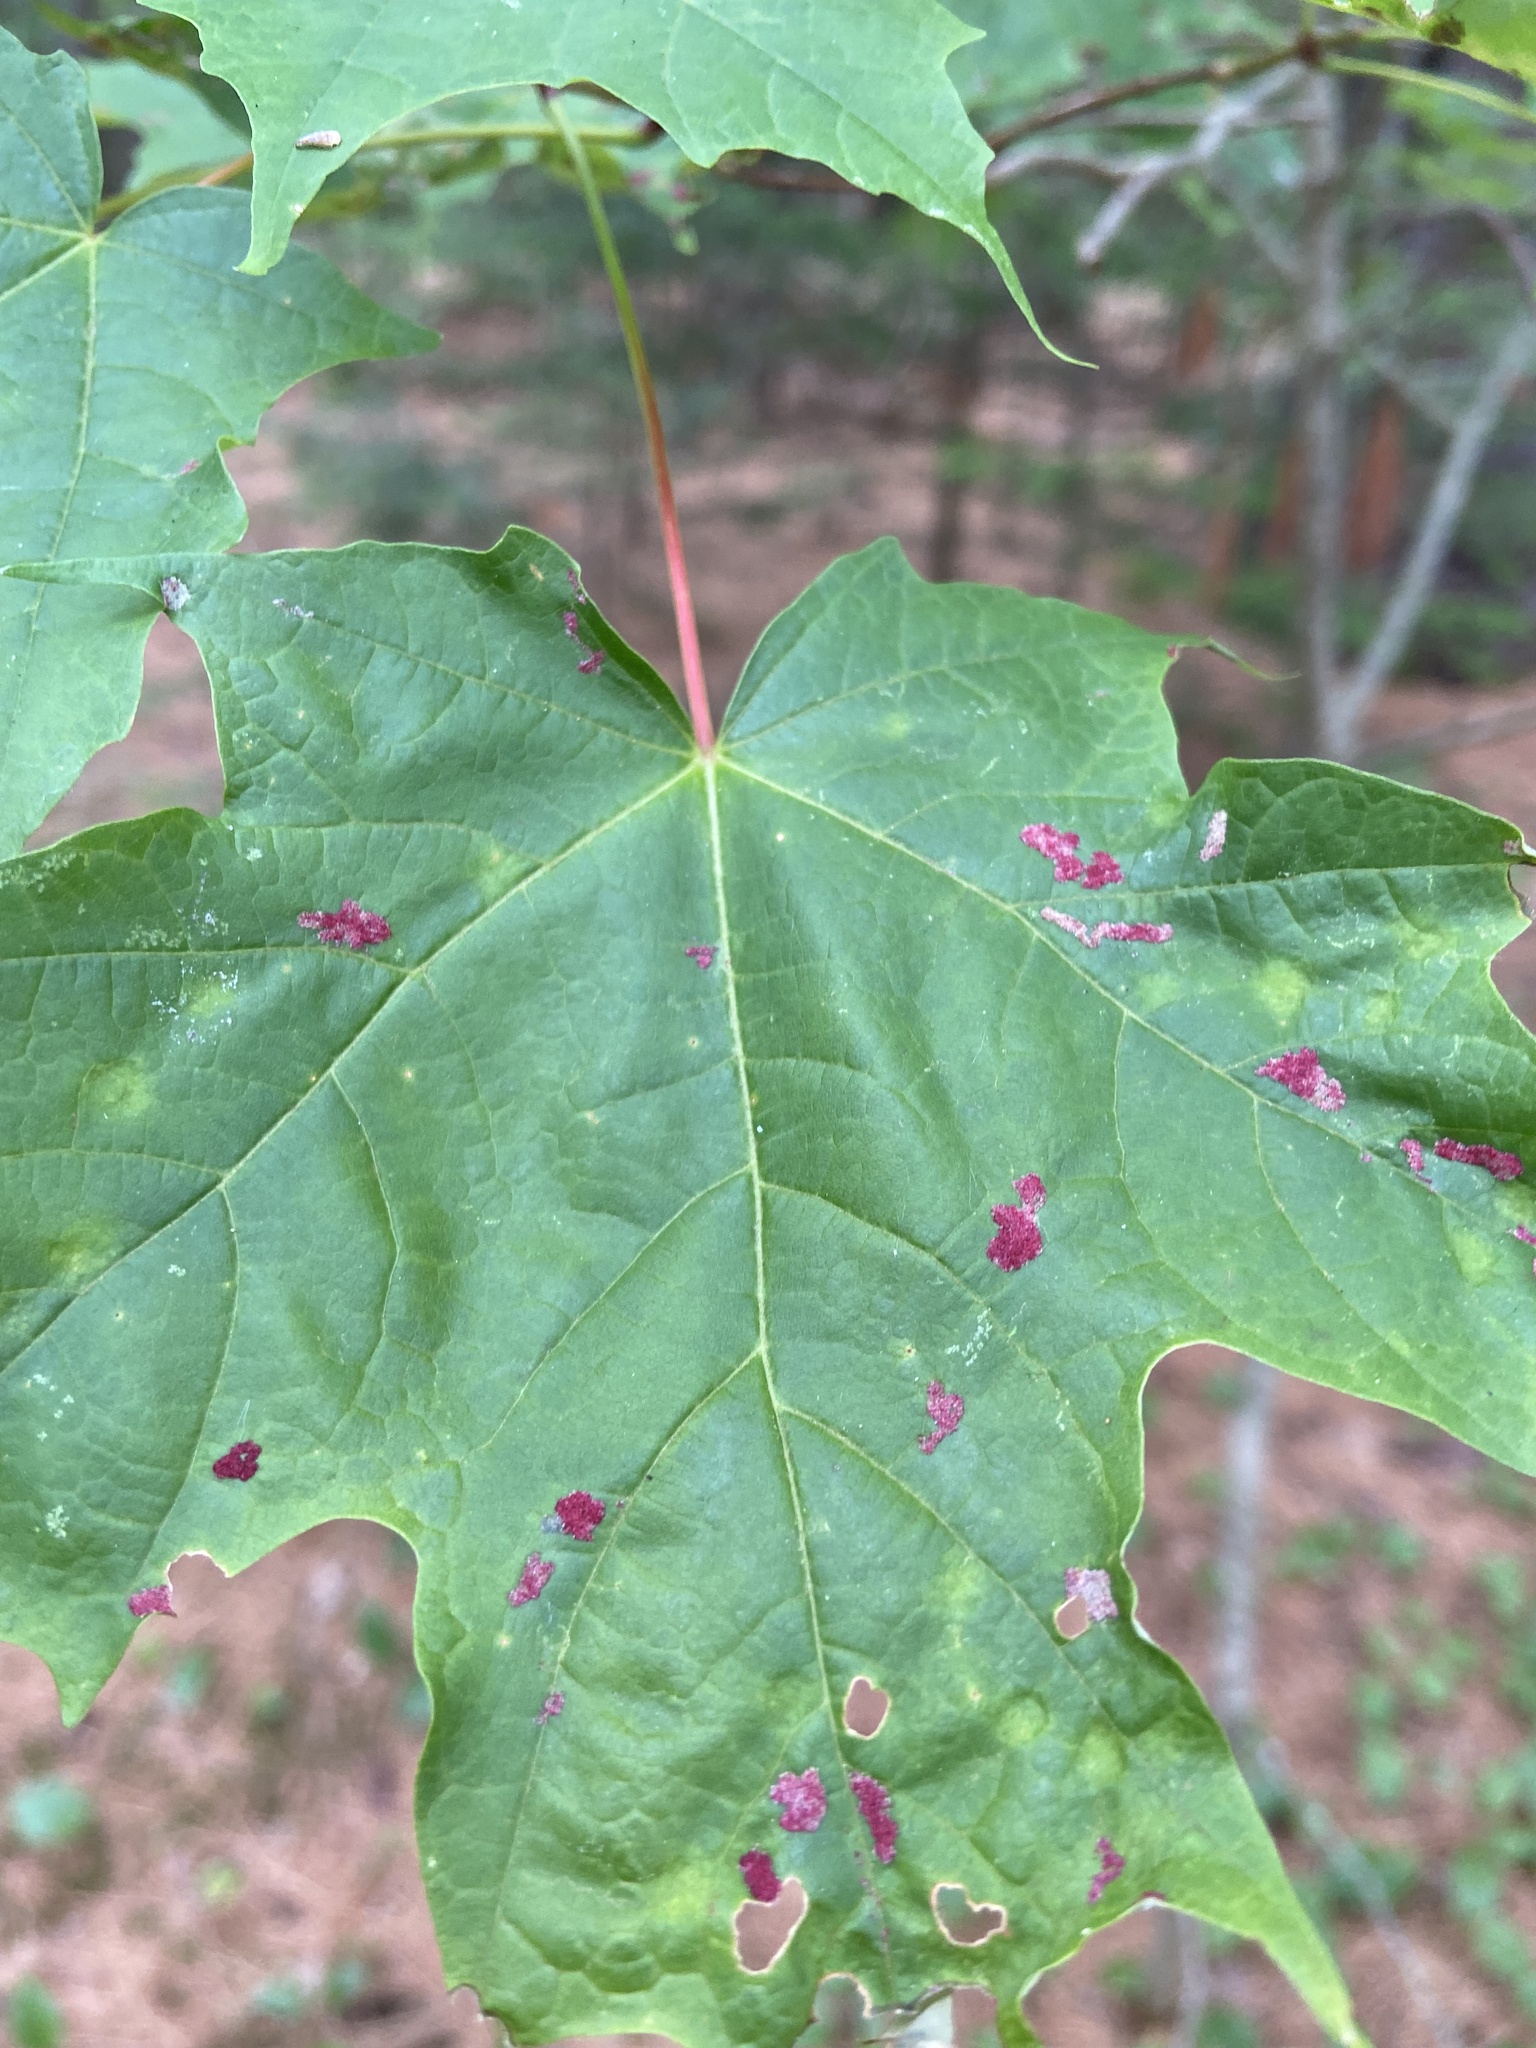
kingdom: Animalia
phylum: Arthropoda
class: Arachnida
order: Trombidiformes
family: Eriophyidae
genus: Aceria
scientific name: Aceria
